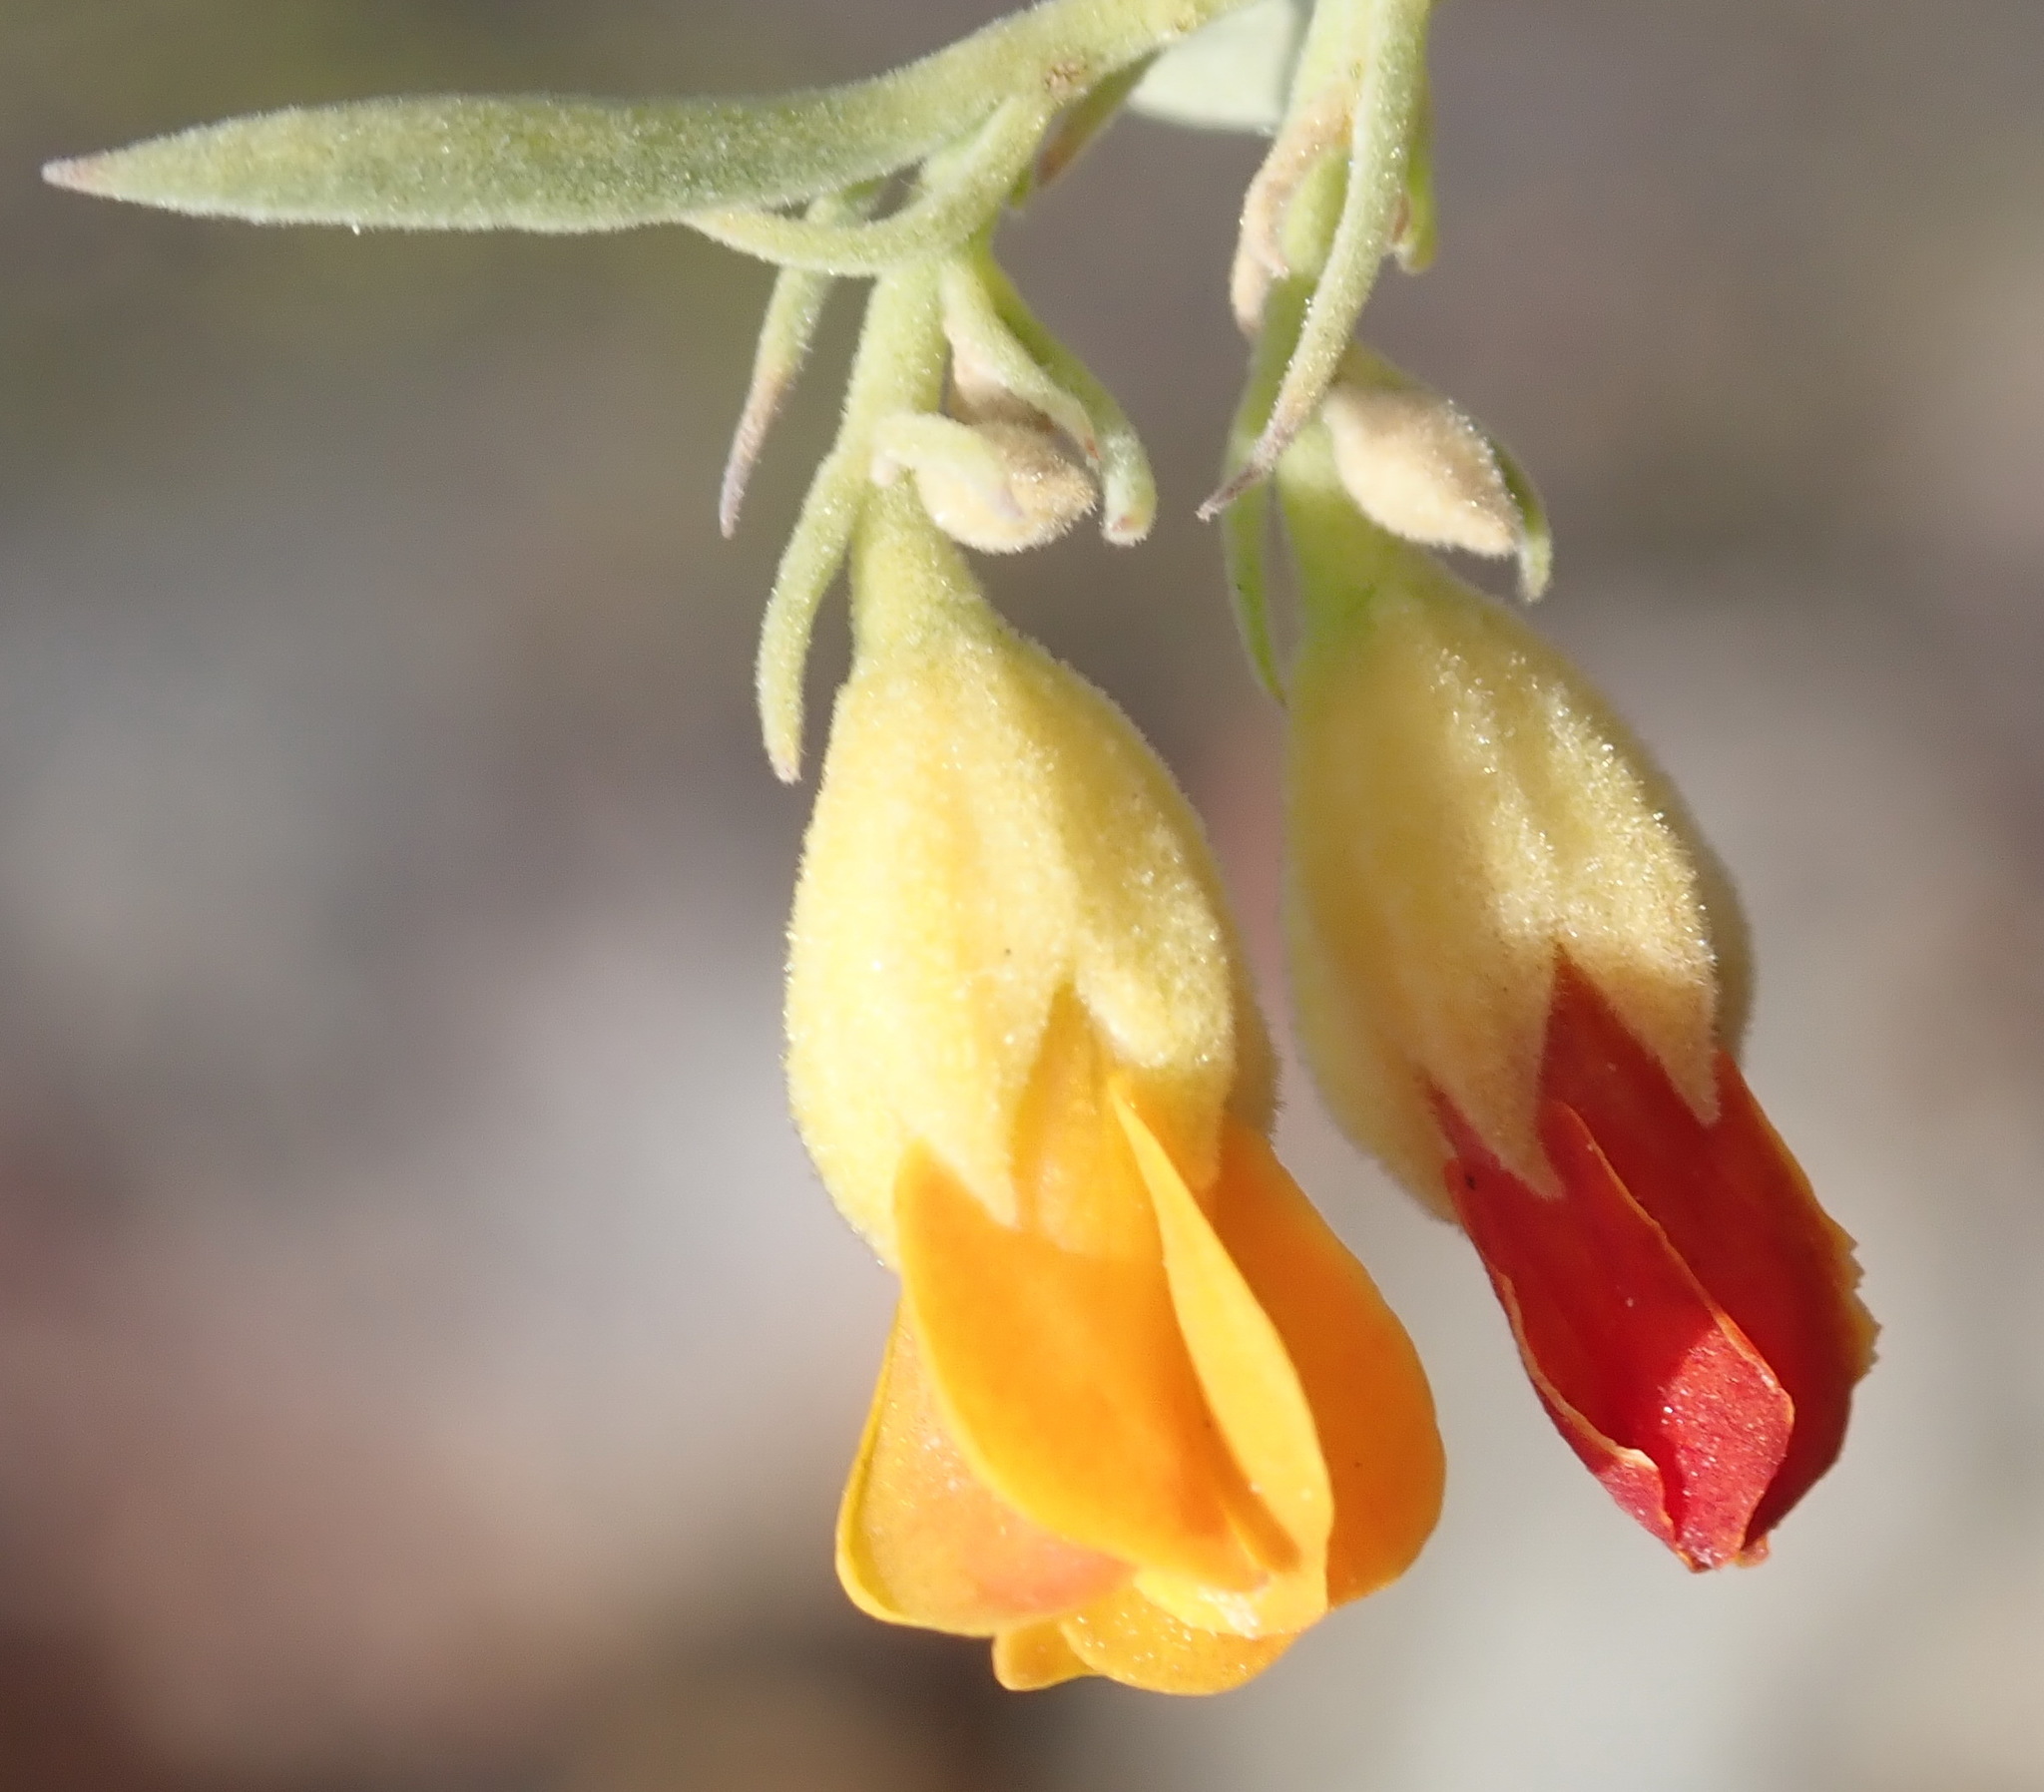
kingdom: Plantae
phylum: Tracheophyta
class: Magnoliopsida
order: Malvales
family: Malvaceae
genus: Hermannia
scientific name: Hermannia odorata
